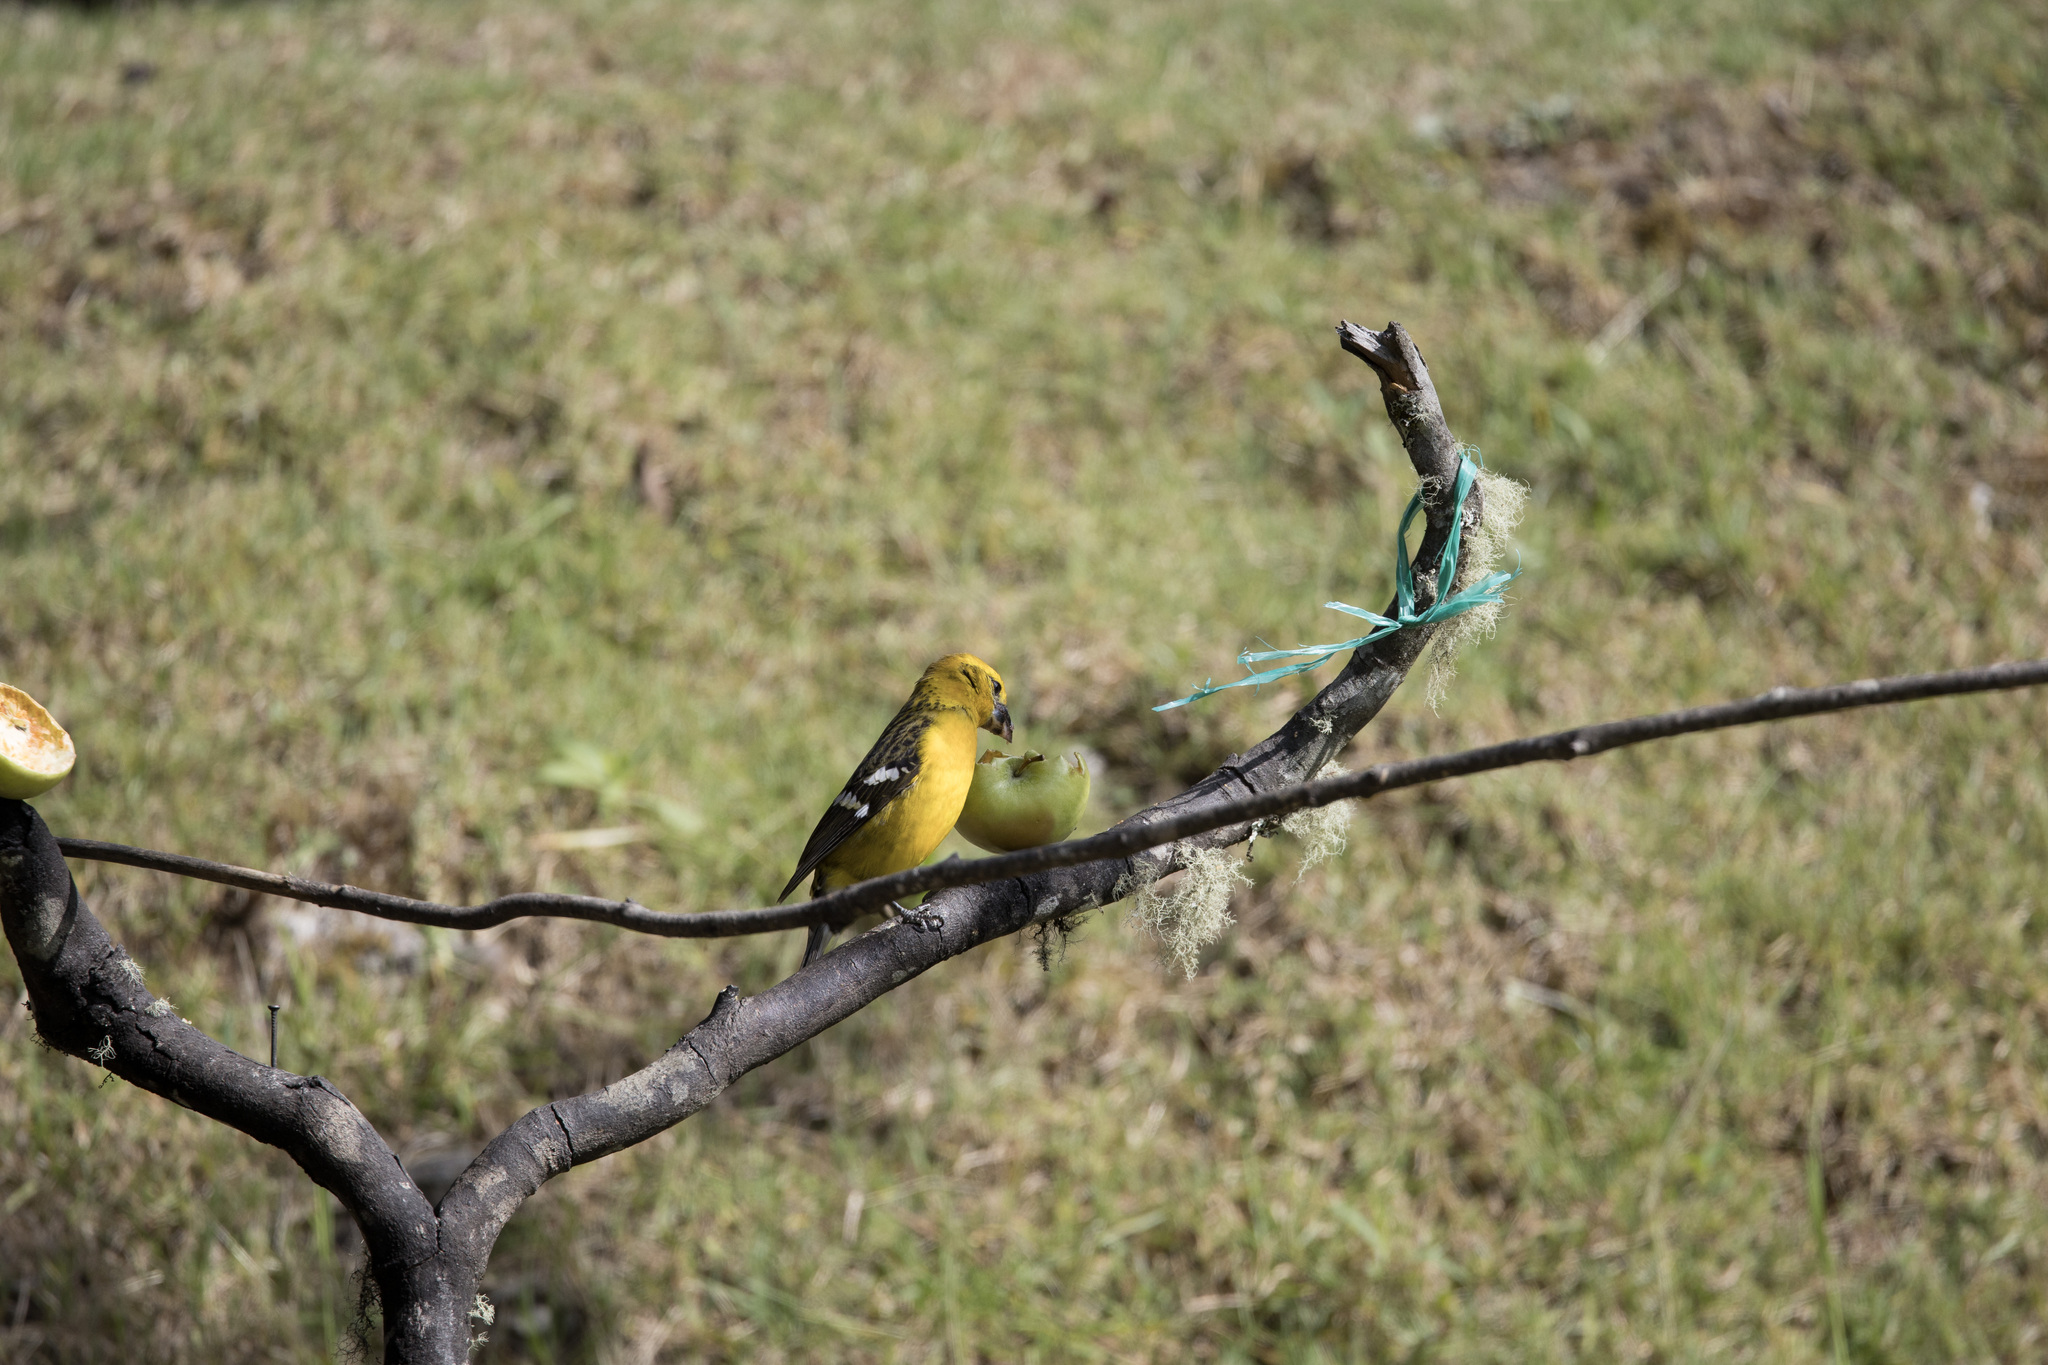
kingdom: Animalia
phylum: Chordata
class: Aves
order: Passeriformes
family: Cardinalidae
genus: Pheucticus
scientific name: Pheucticus chrysogaster
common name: Golden grosbeak
